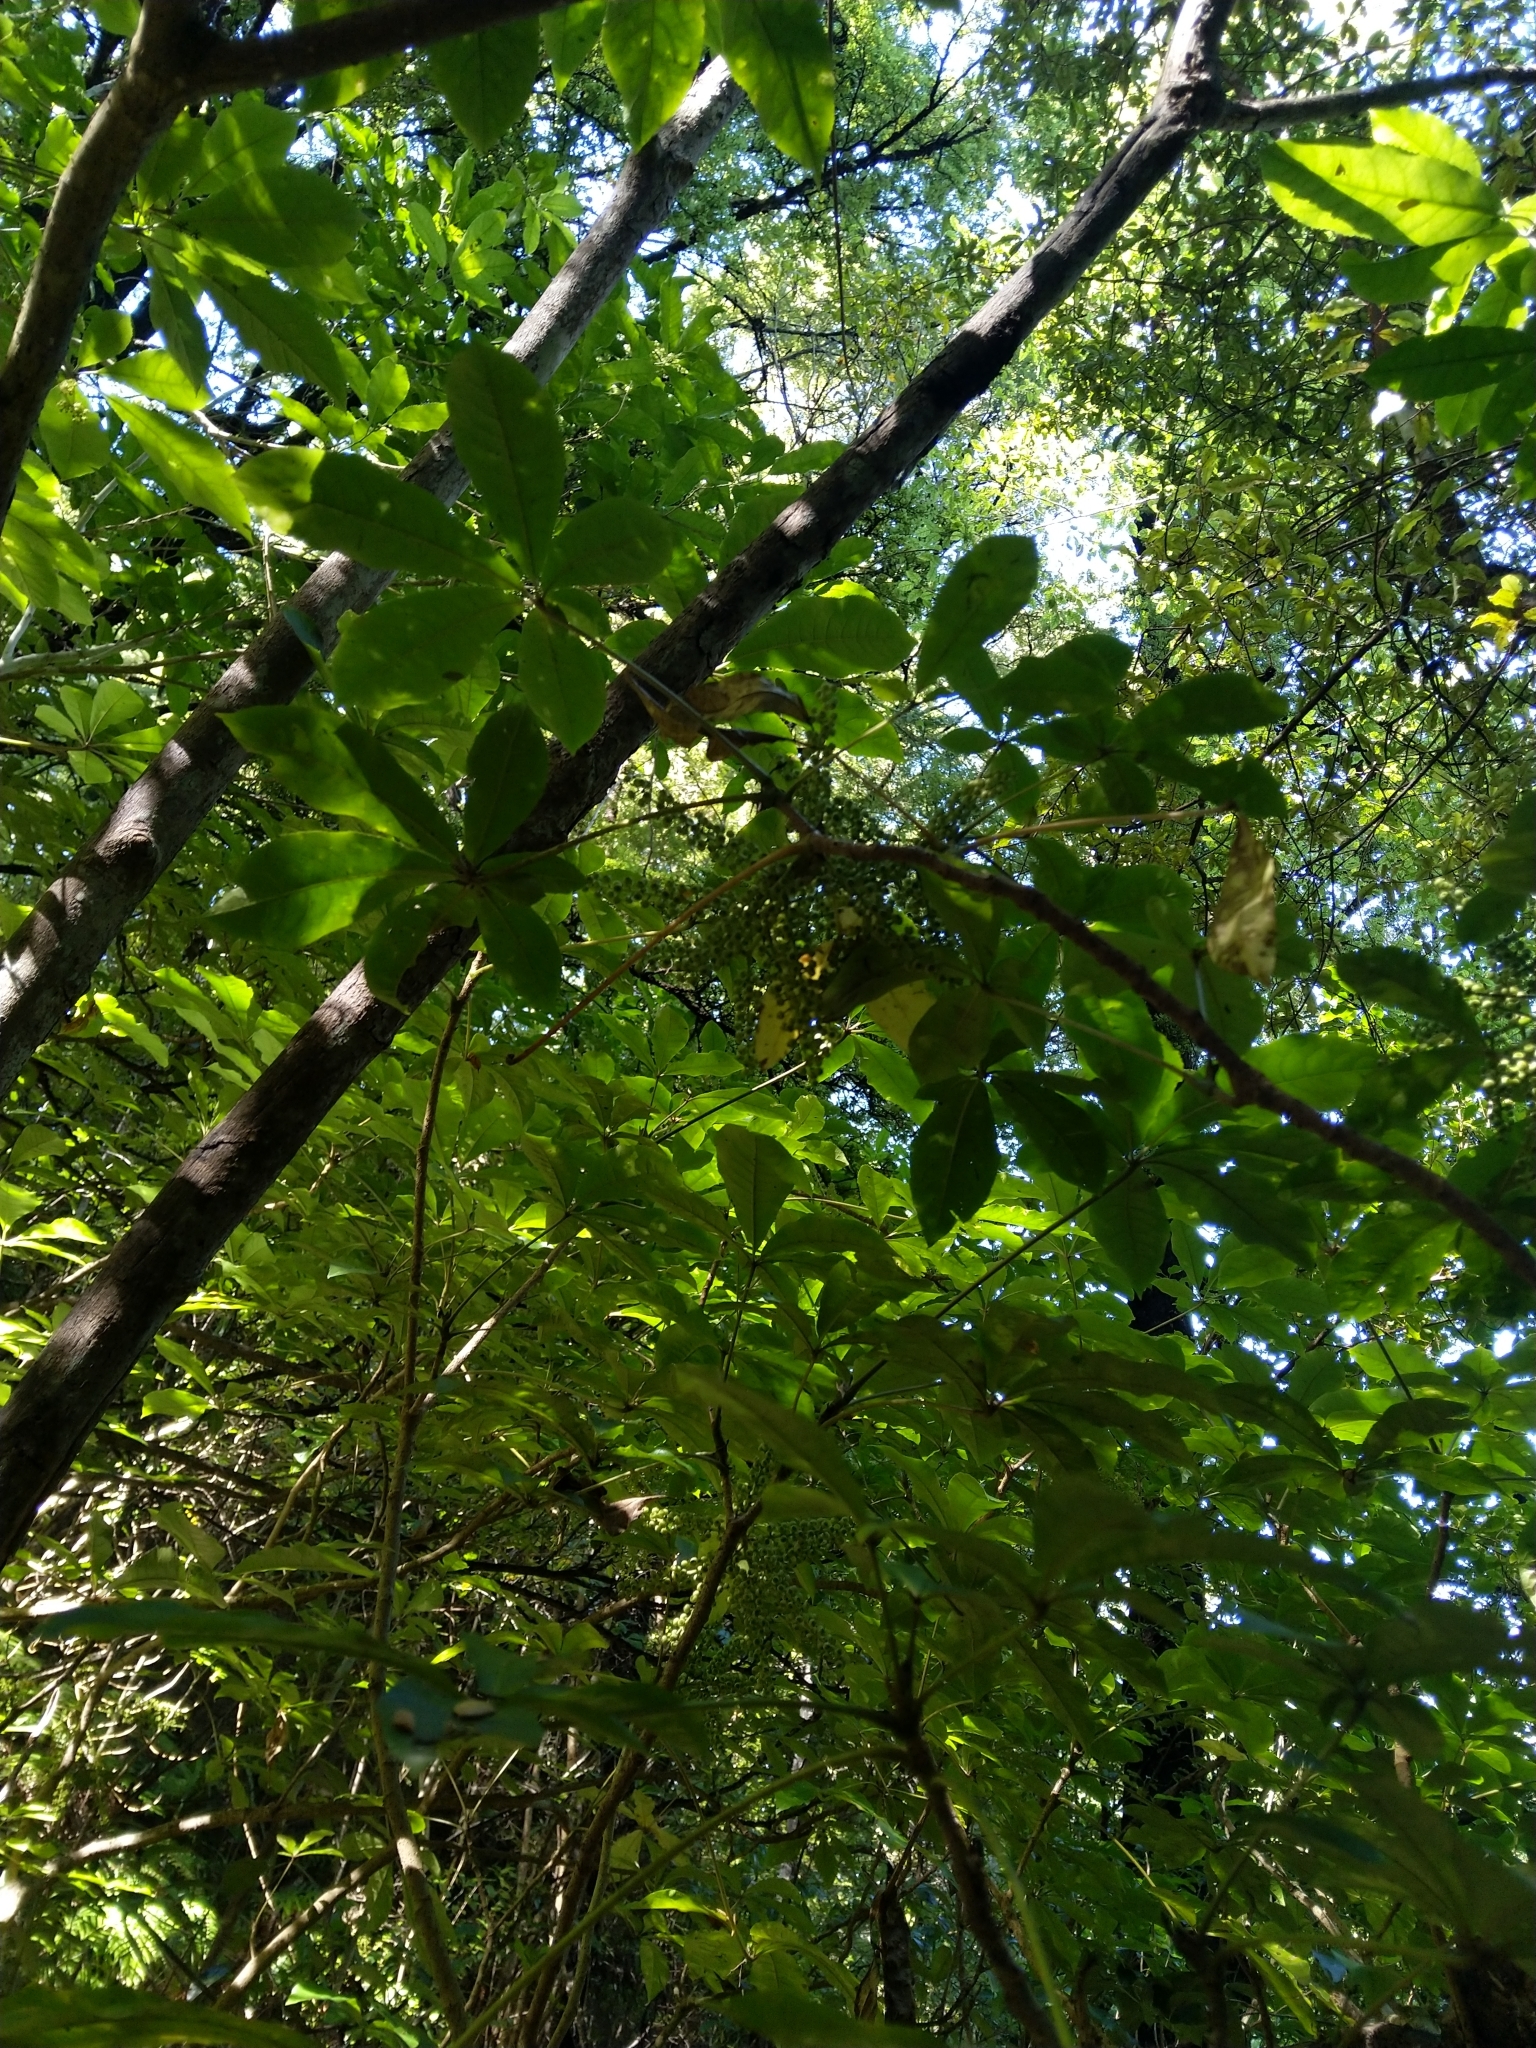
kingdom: Plantae
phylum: Tracheophyta
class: Magnoliopsida
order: Apiales
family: Araliaceae
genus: Schefflera
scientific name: Schefflera digitata
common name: Pate
